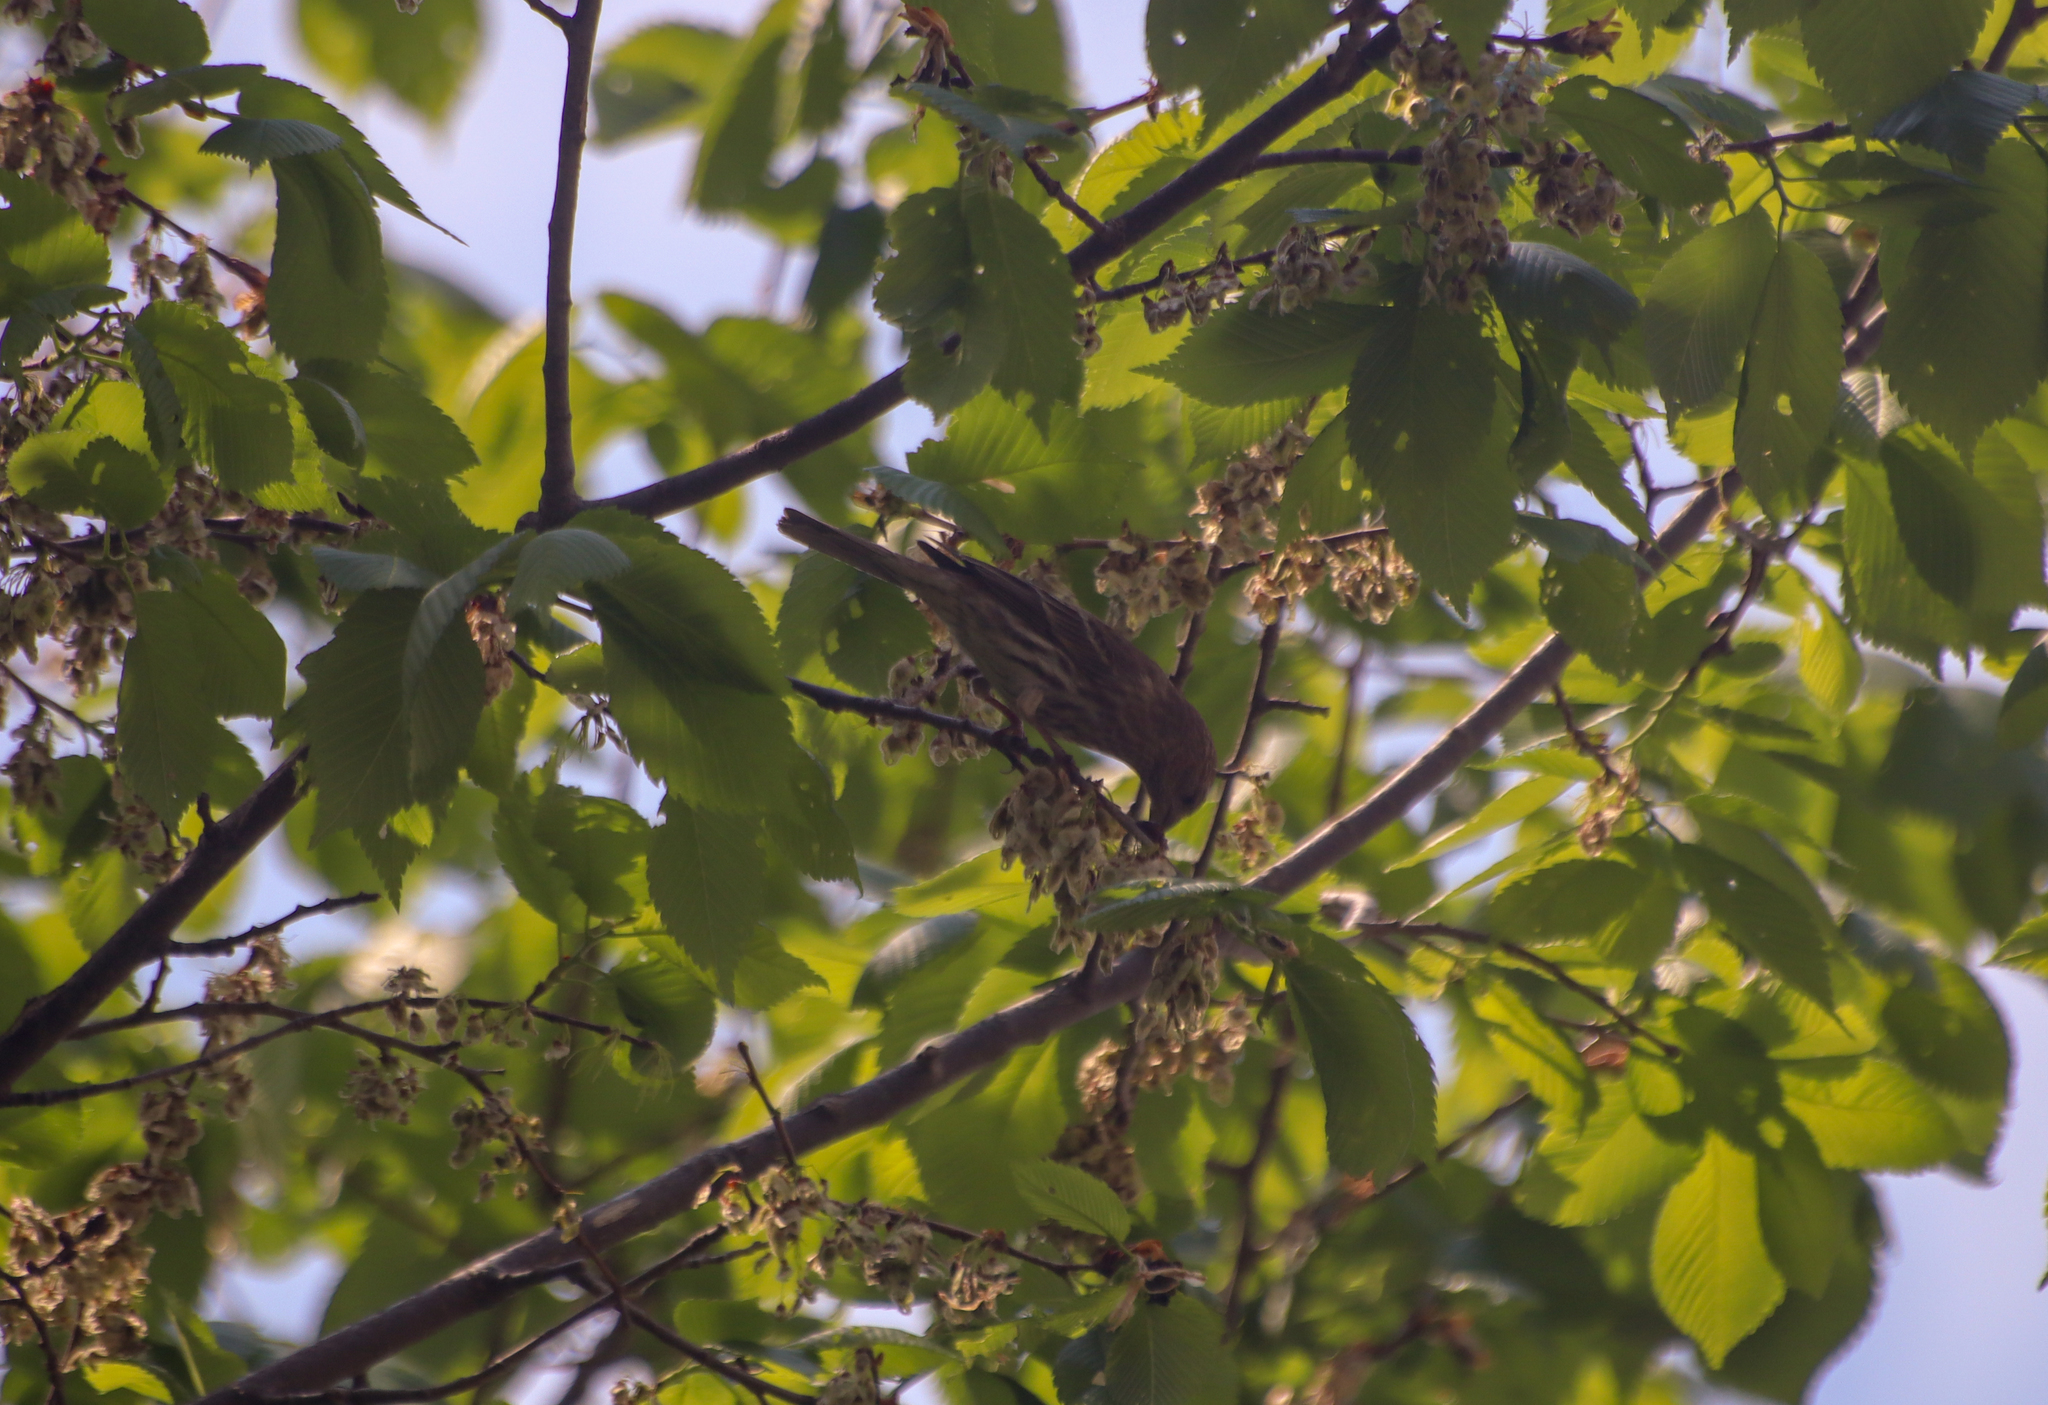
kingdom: Animalia
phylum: Chordata
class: Aves
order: Passeriformes
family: Fringillidae
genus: Haemorhous
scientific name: Haemorhous mexicanus
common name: House finch
